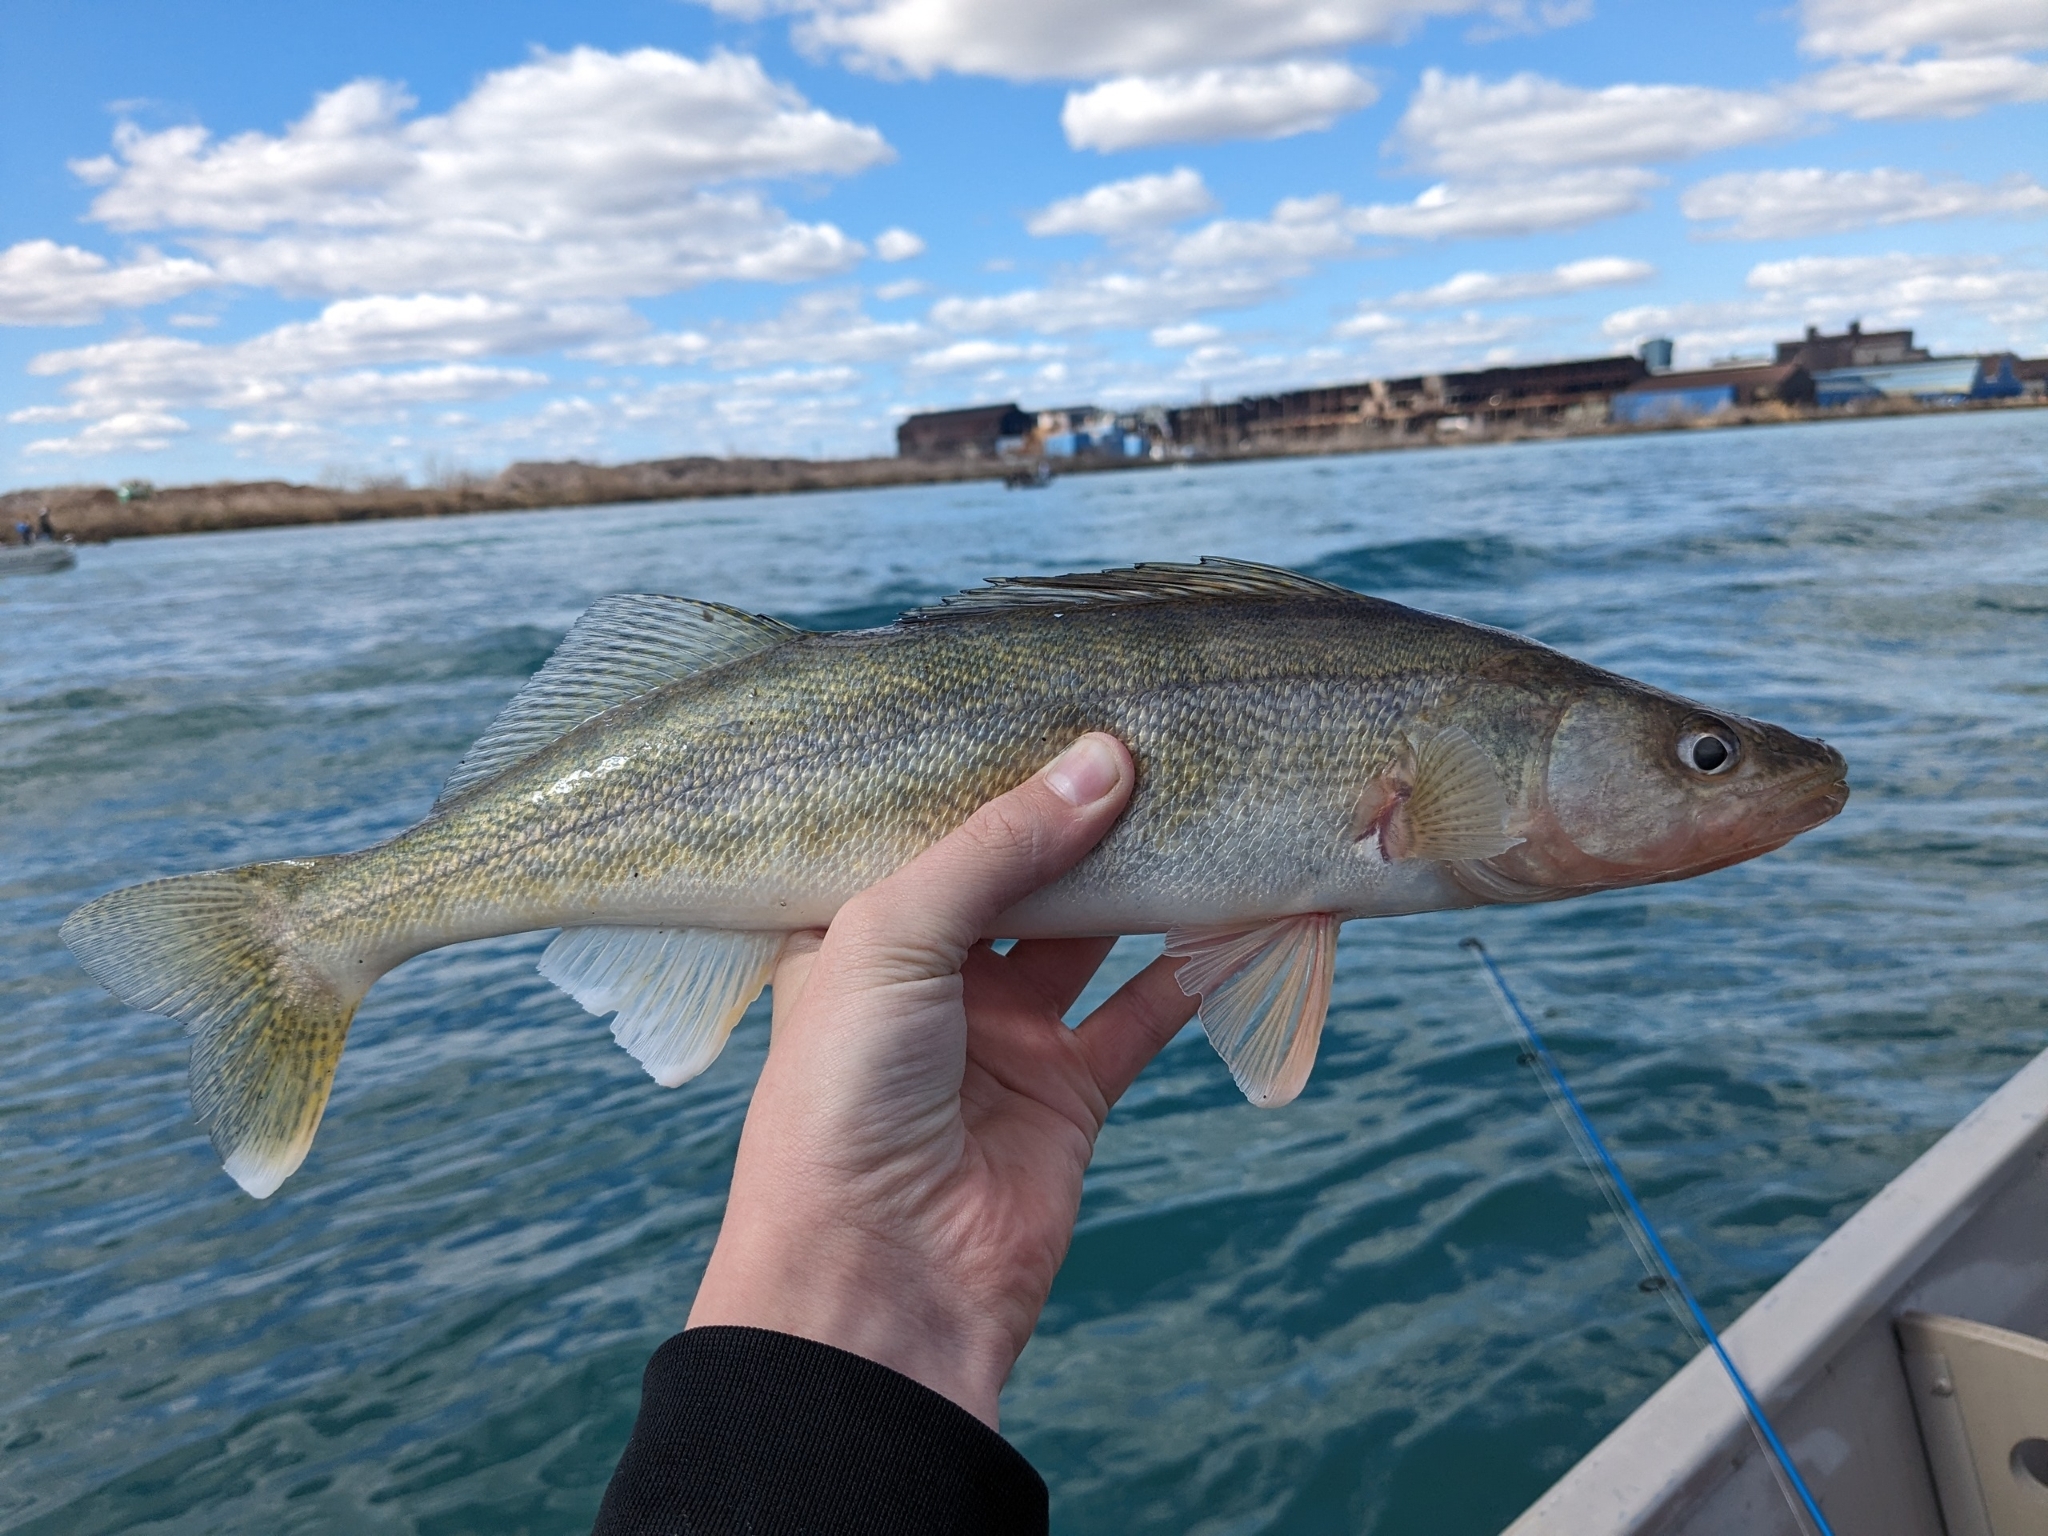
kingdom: Animalia
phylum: Chordata
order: Perciformes
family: Percidae
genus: Sander
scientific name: Sander vitreus
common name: Walleye
